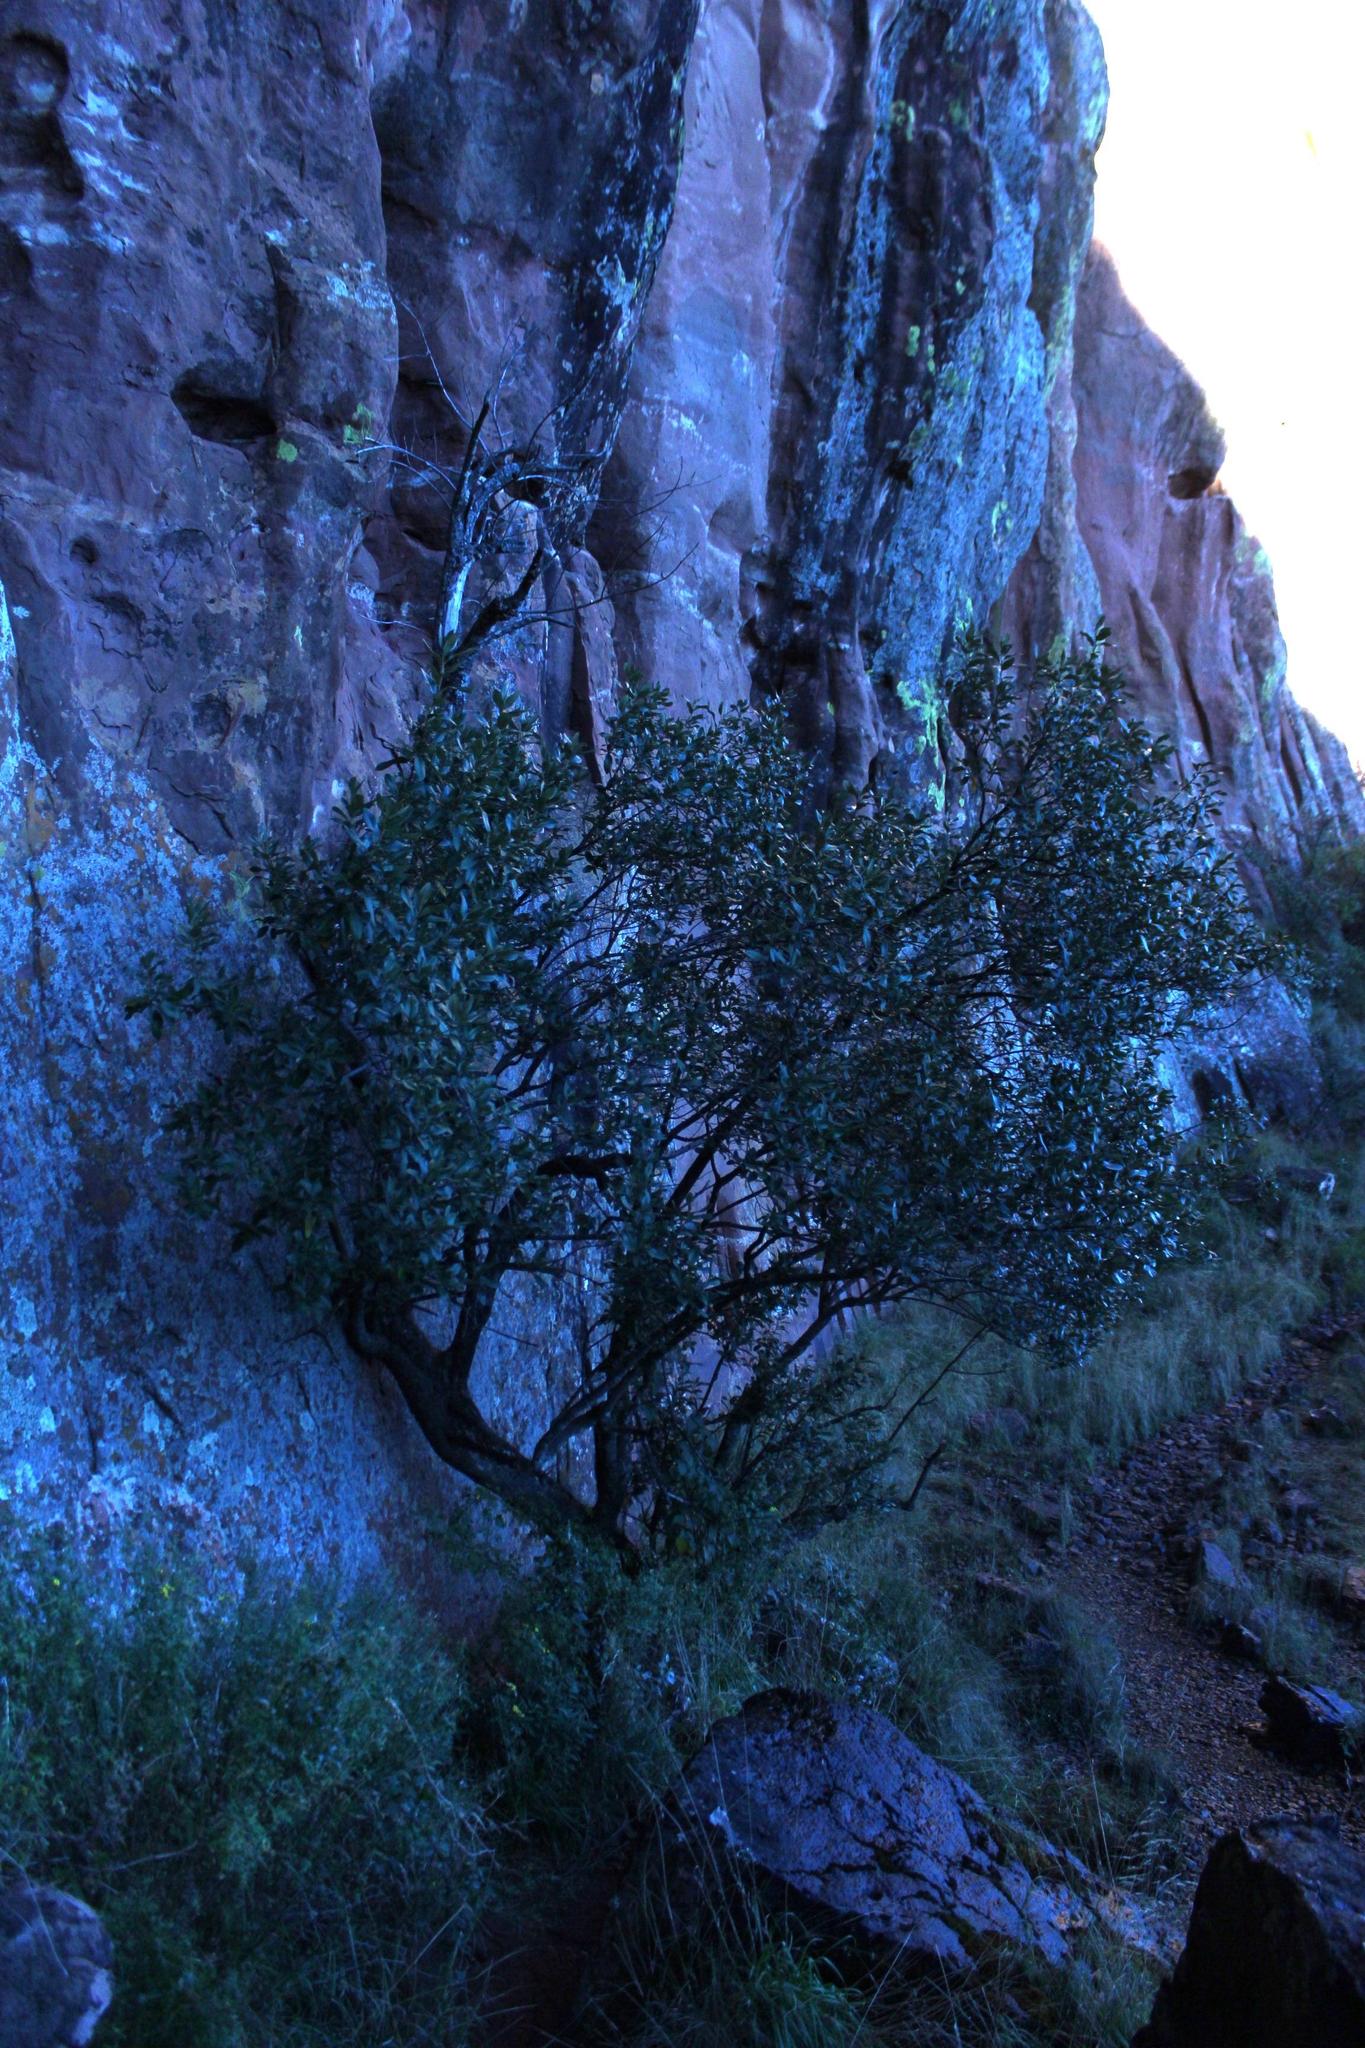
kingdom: Plantae
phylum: Tracheophyta
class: Magnoliopsida
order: Malpighiales
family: Achariaceae
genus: Kiggelaria
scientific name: Kiggelaria africana
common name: Wild peach
